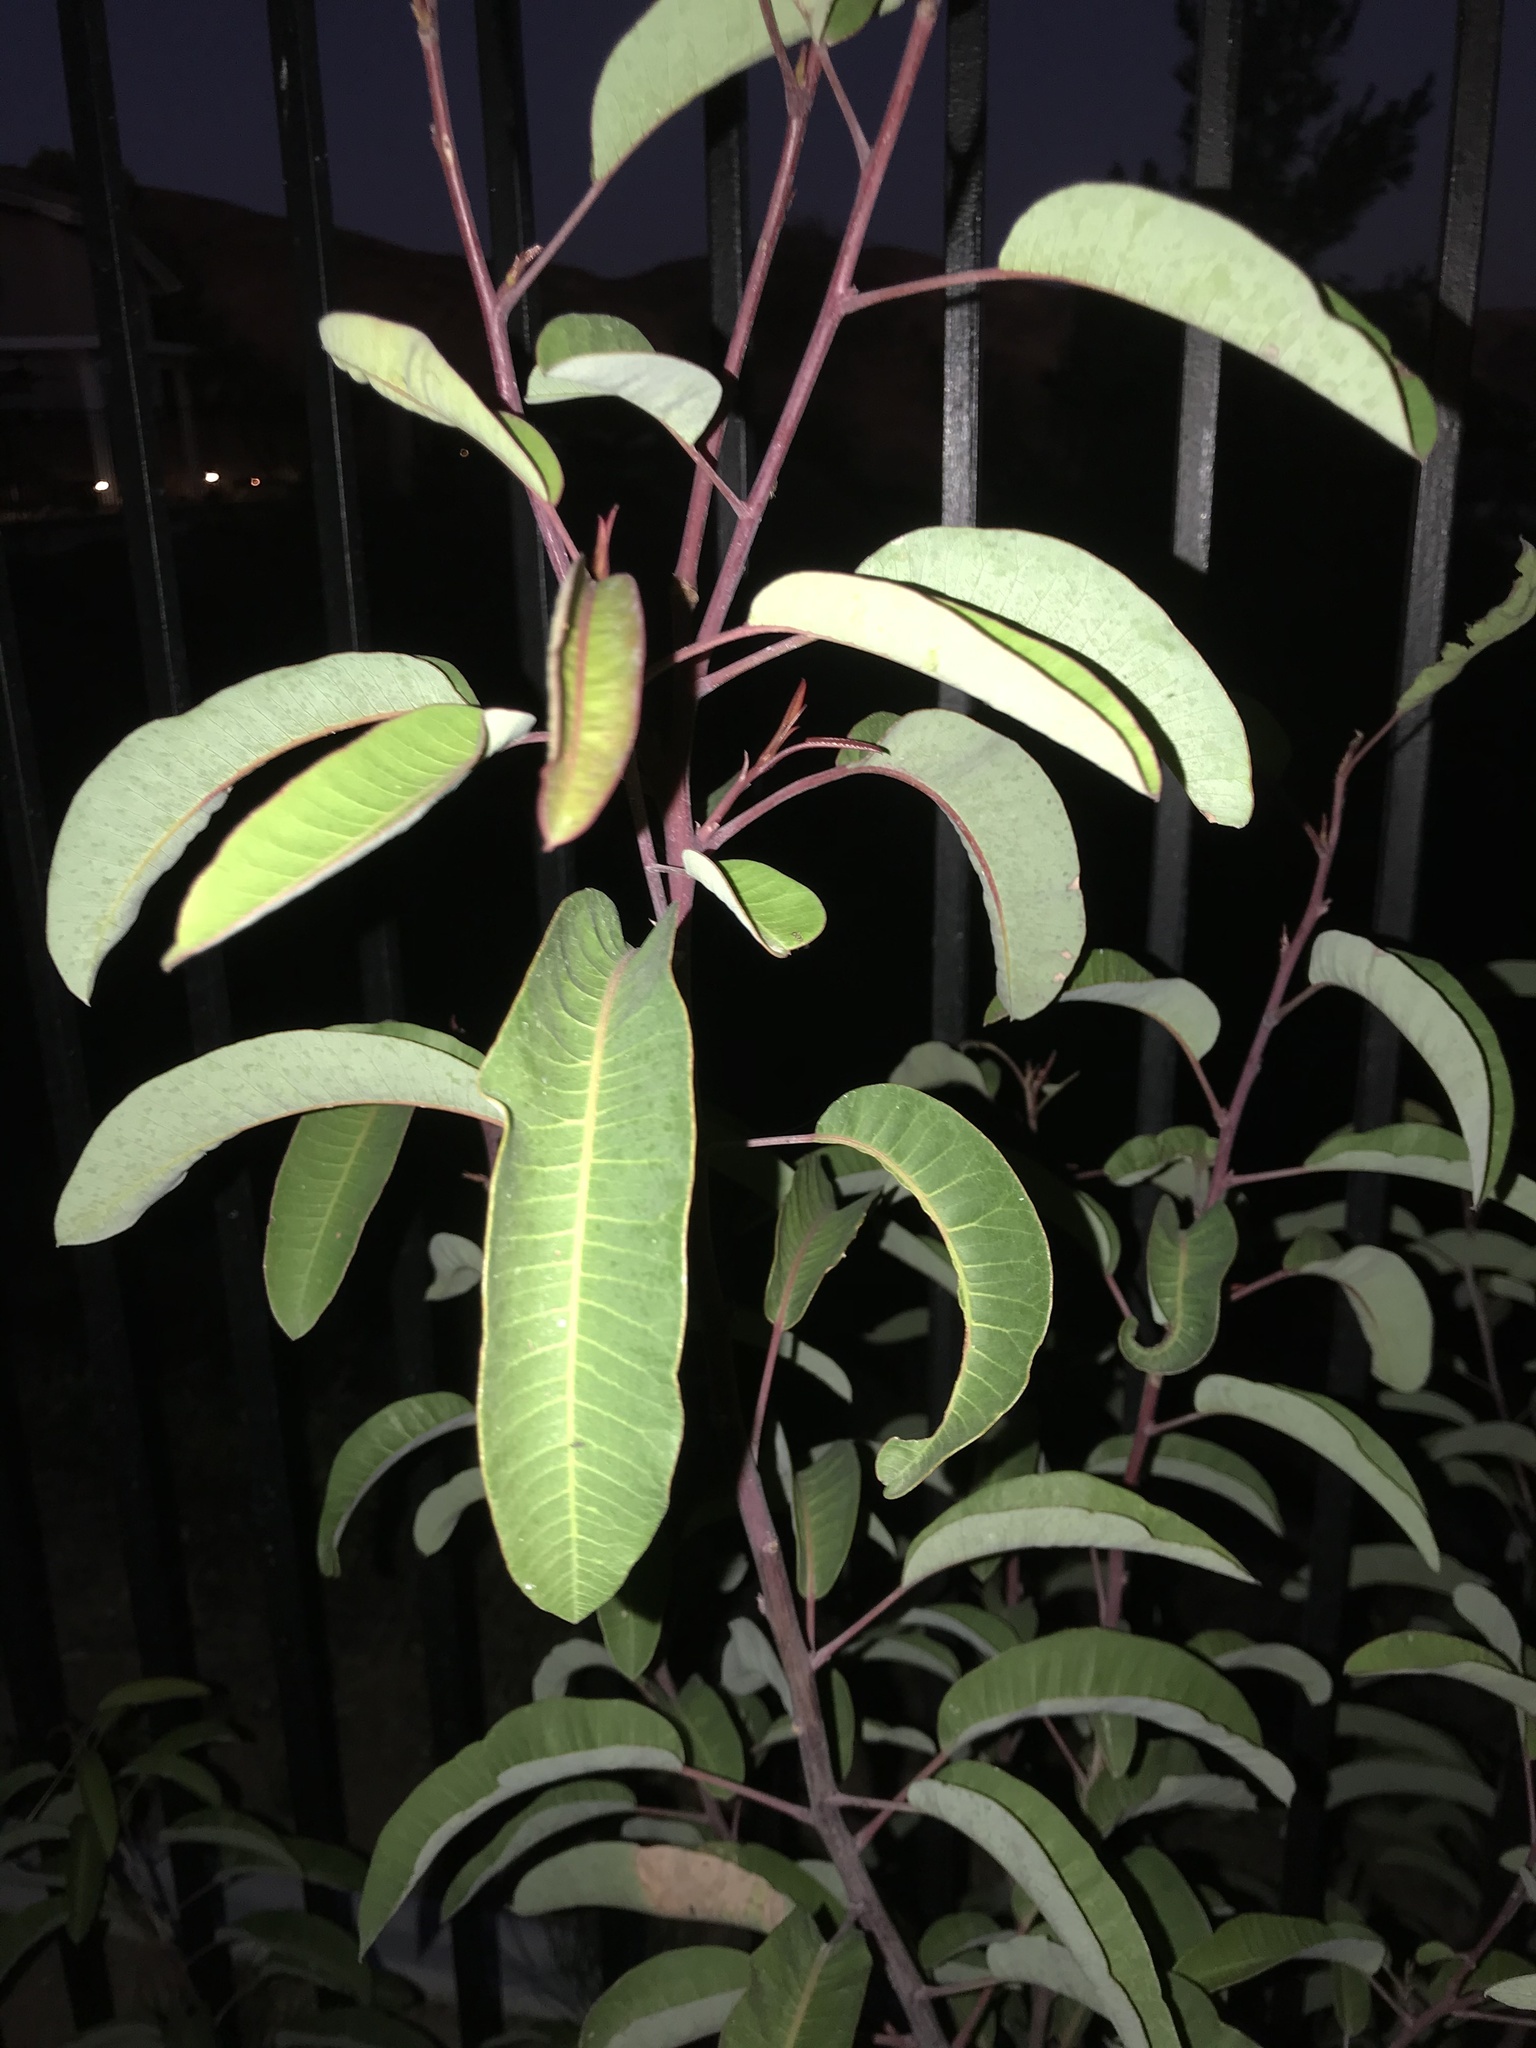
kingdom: Plantae
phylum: Tracheophyta
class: Magnoliopsida
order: Sapindales
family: Anacardiaceae
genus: Malosma
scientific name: Malosma laurina
